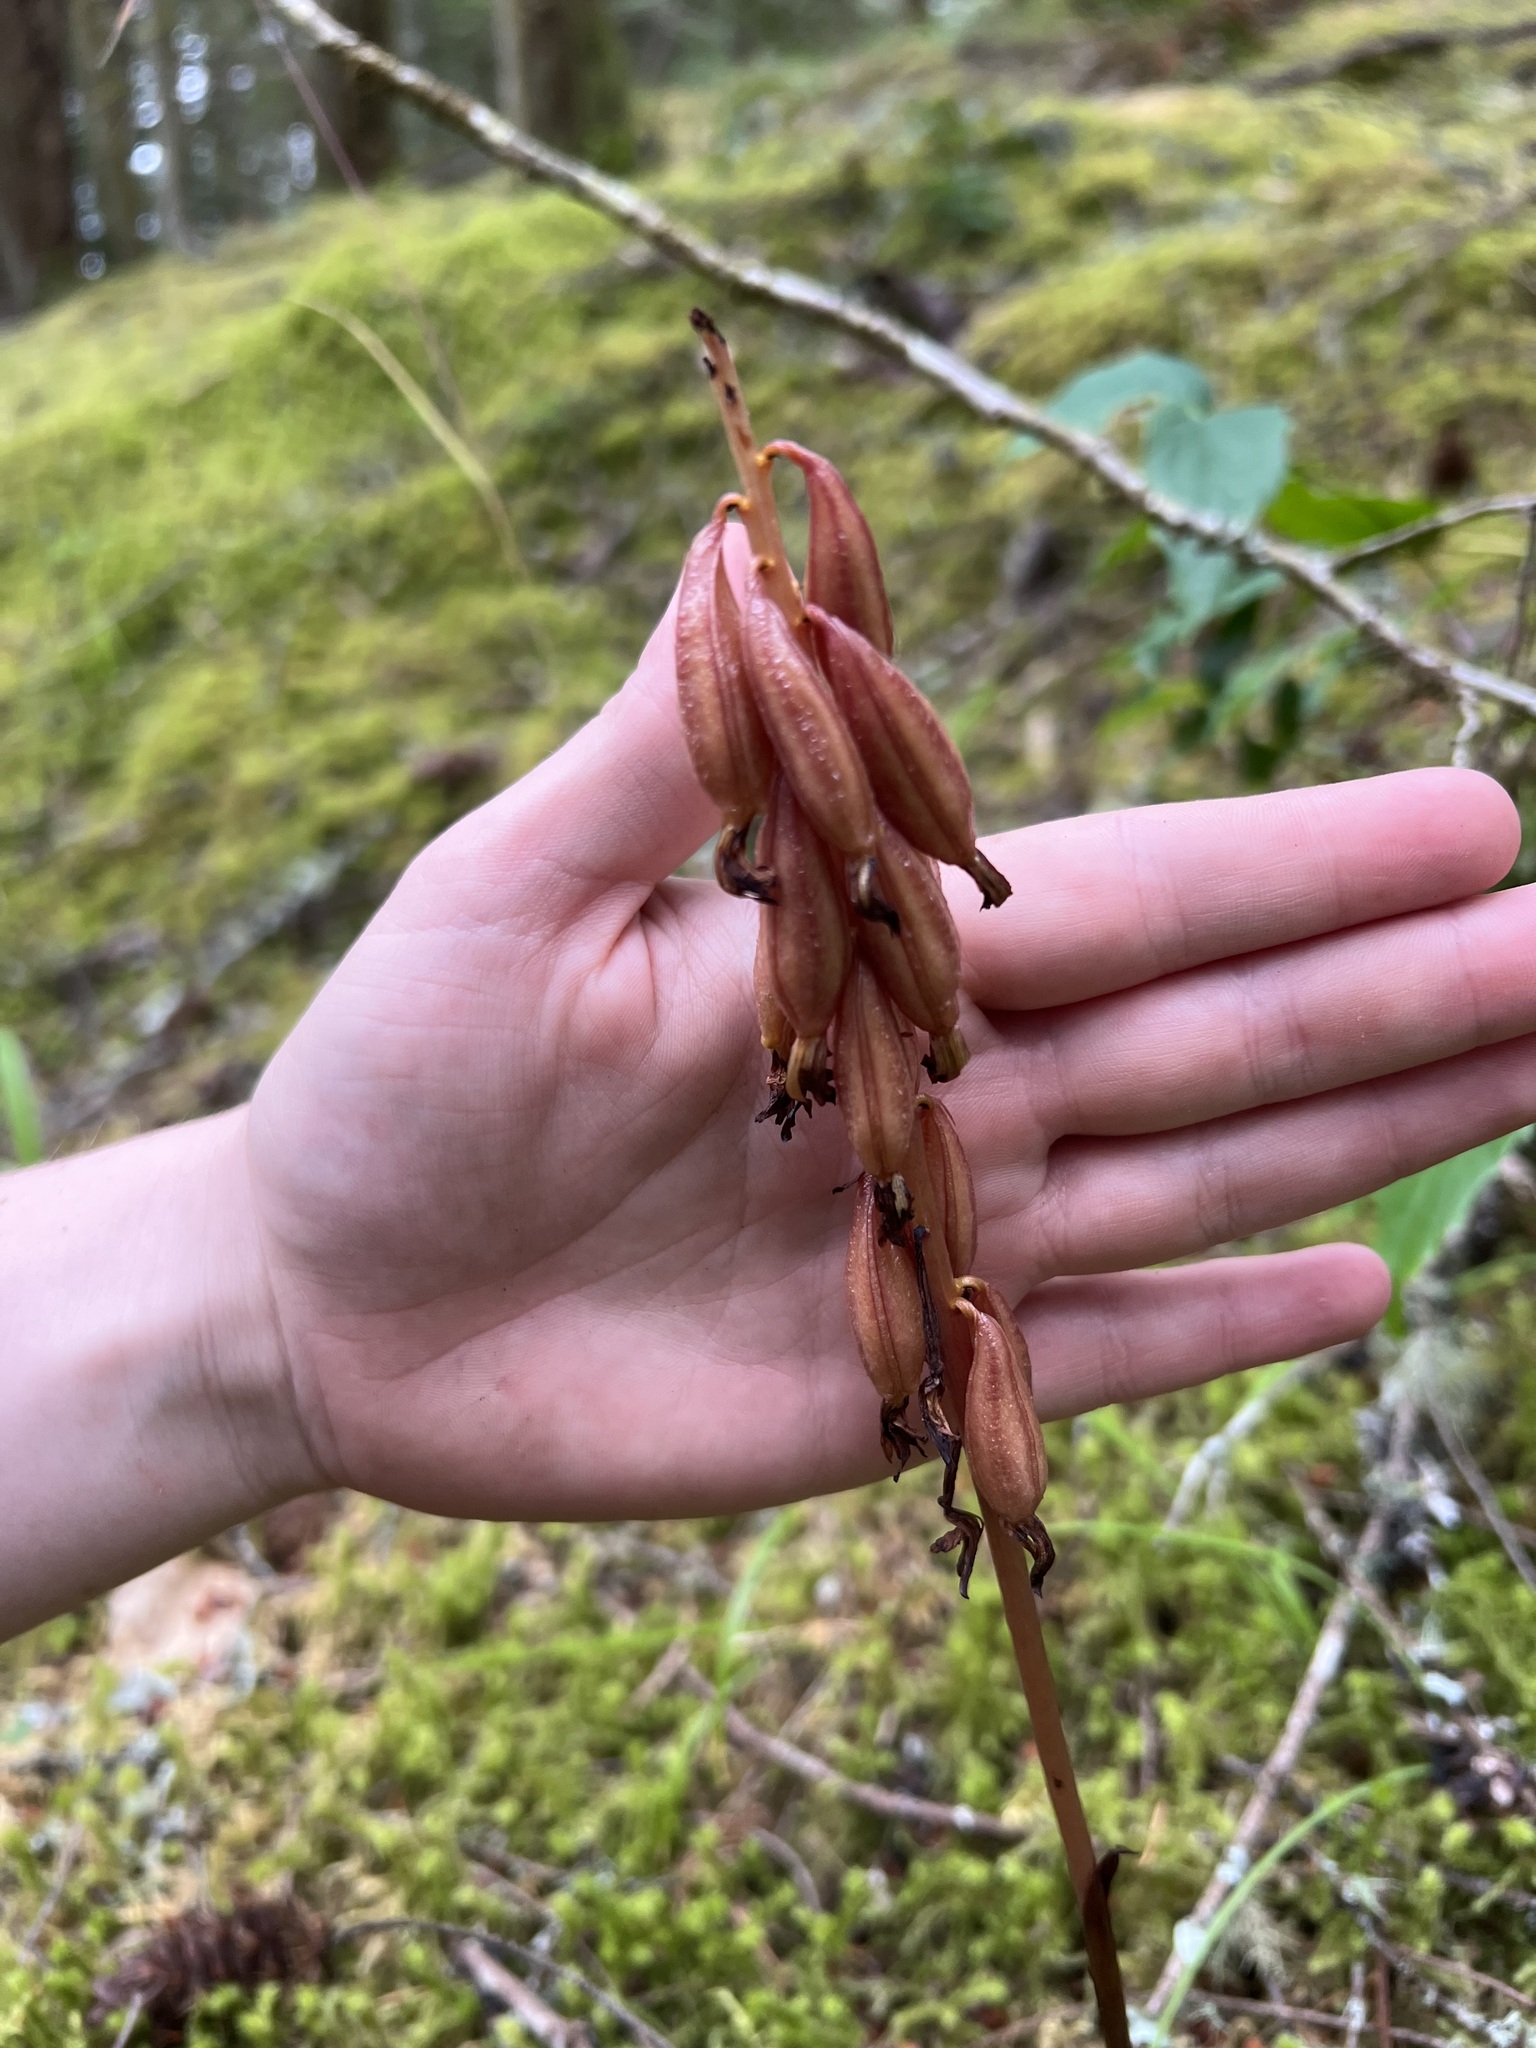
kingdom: Plantae
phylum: Tracheophyta
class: Liliopsida
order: Asparagales
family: Orchidaceae
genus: Corallorhiza
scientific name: Corallorhiza maculata
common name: Spotted coralroot
